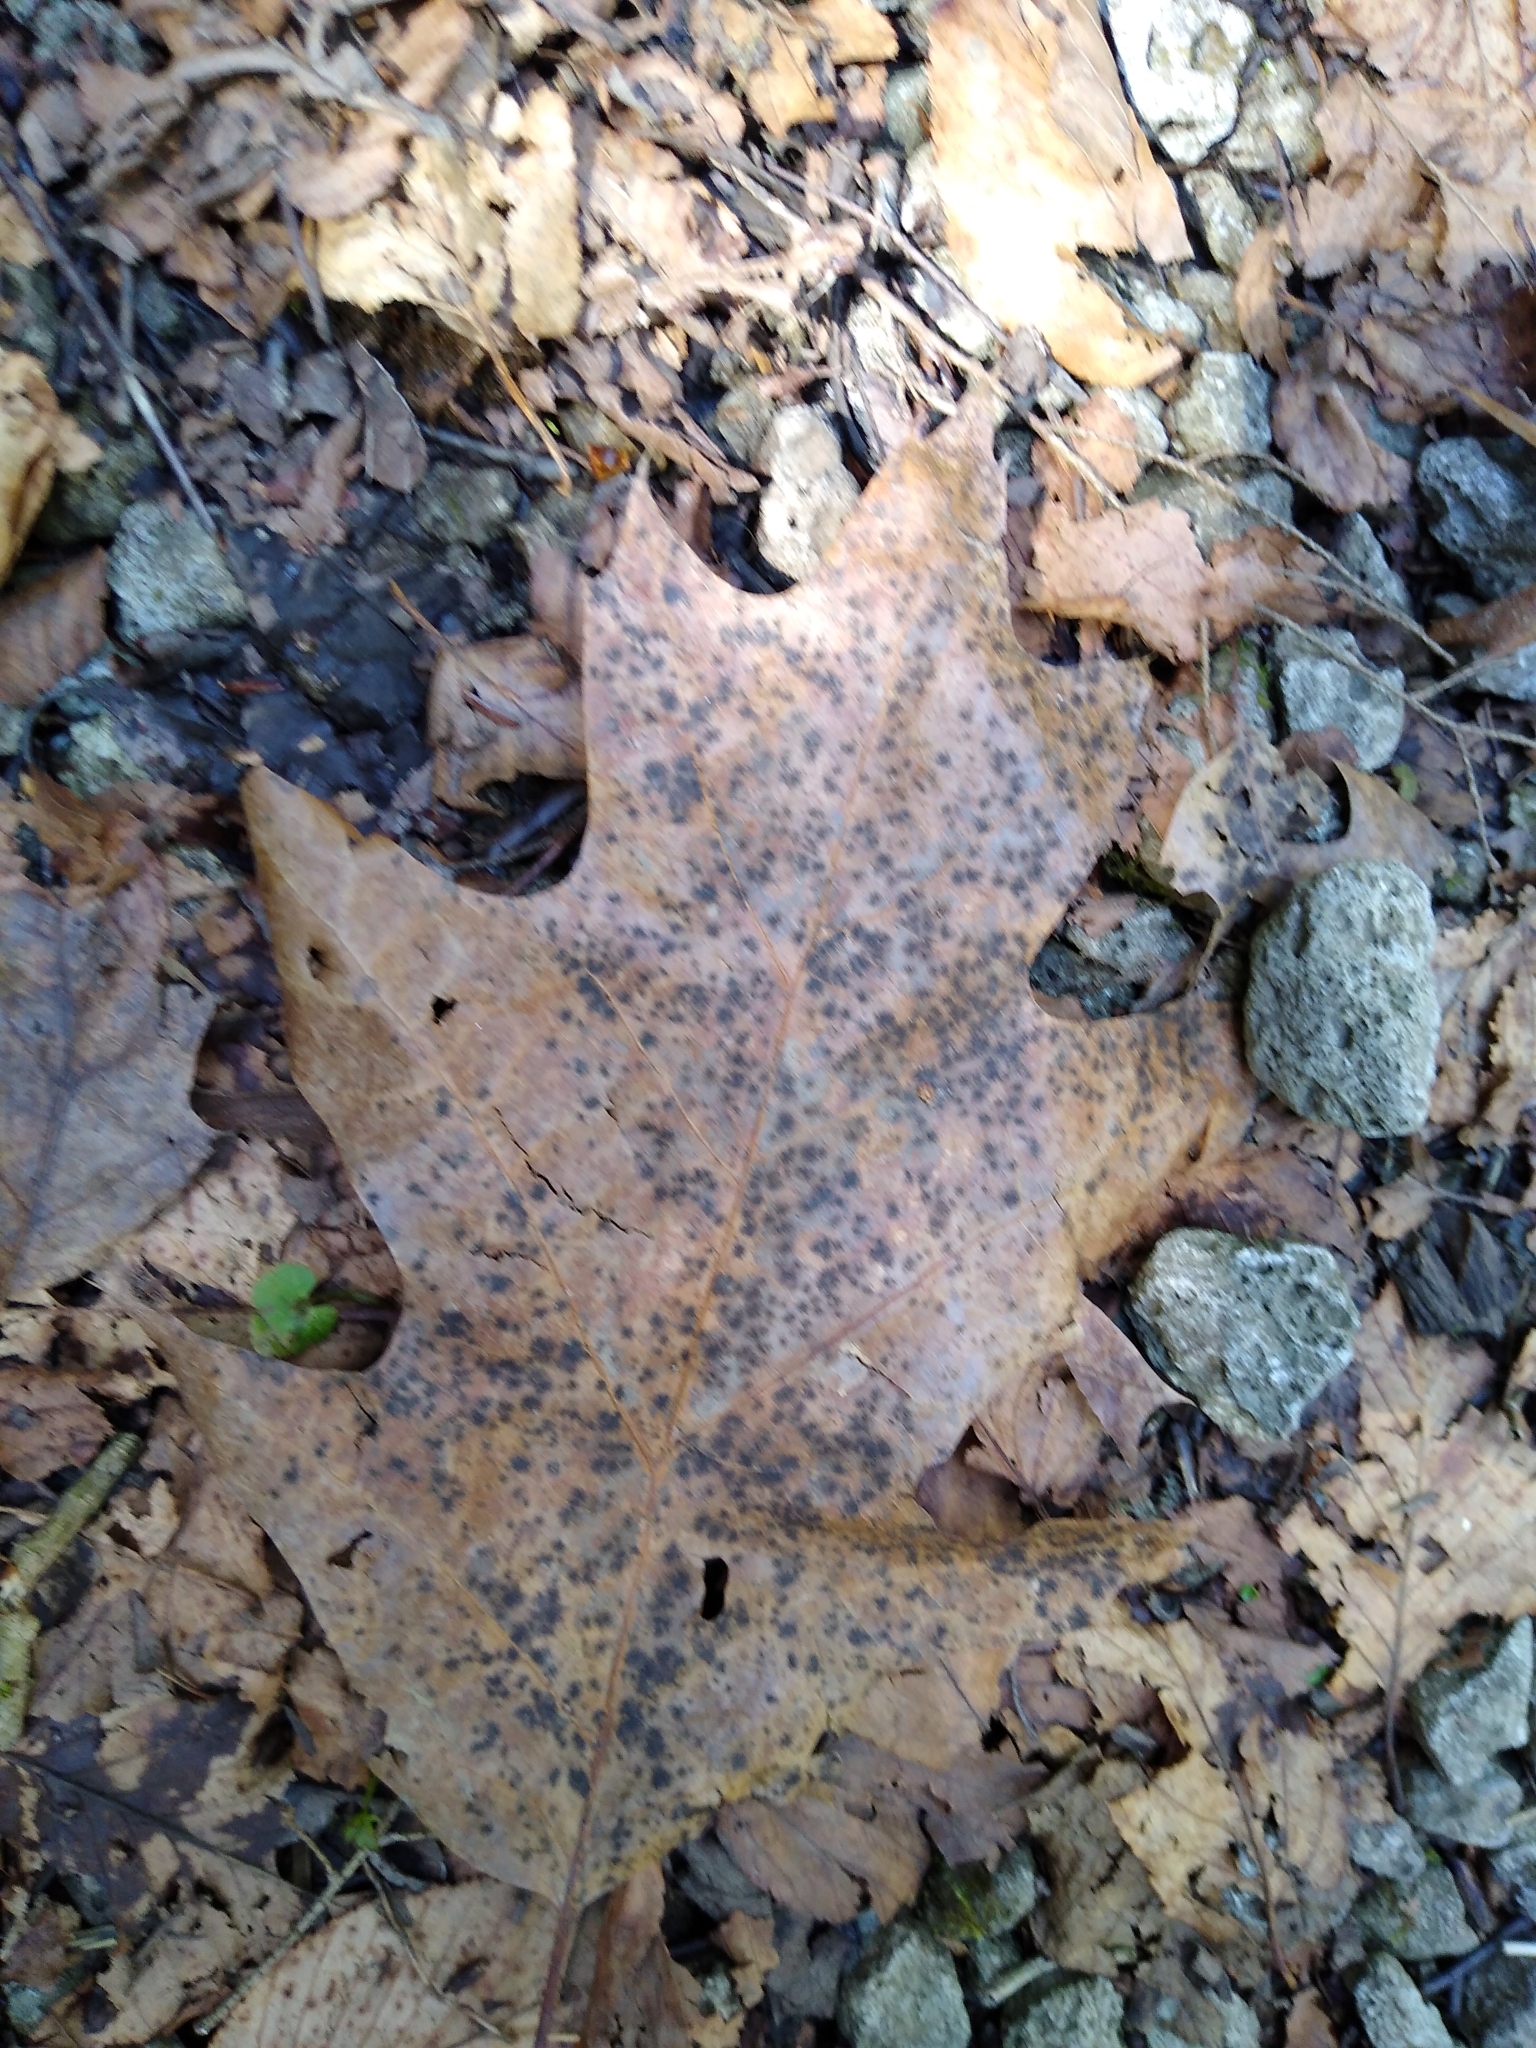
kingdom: Fungi
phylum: Ascomycota
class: Sordariomycetes
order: Diaporthales
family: Melanconidaceae
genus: Dicarpella
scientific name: Dicarpella dryina
